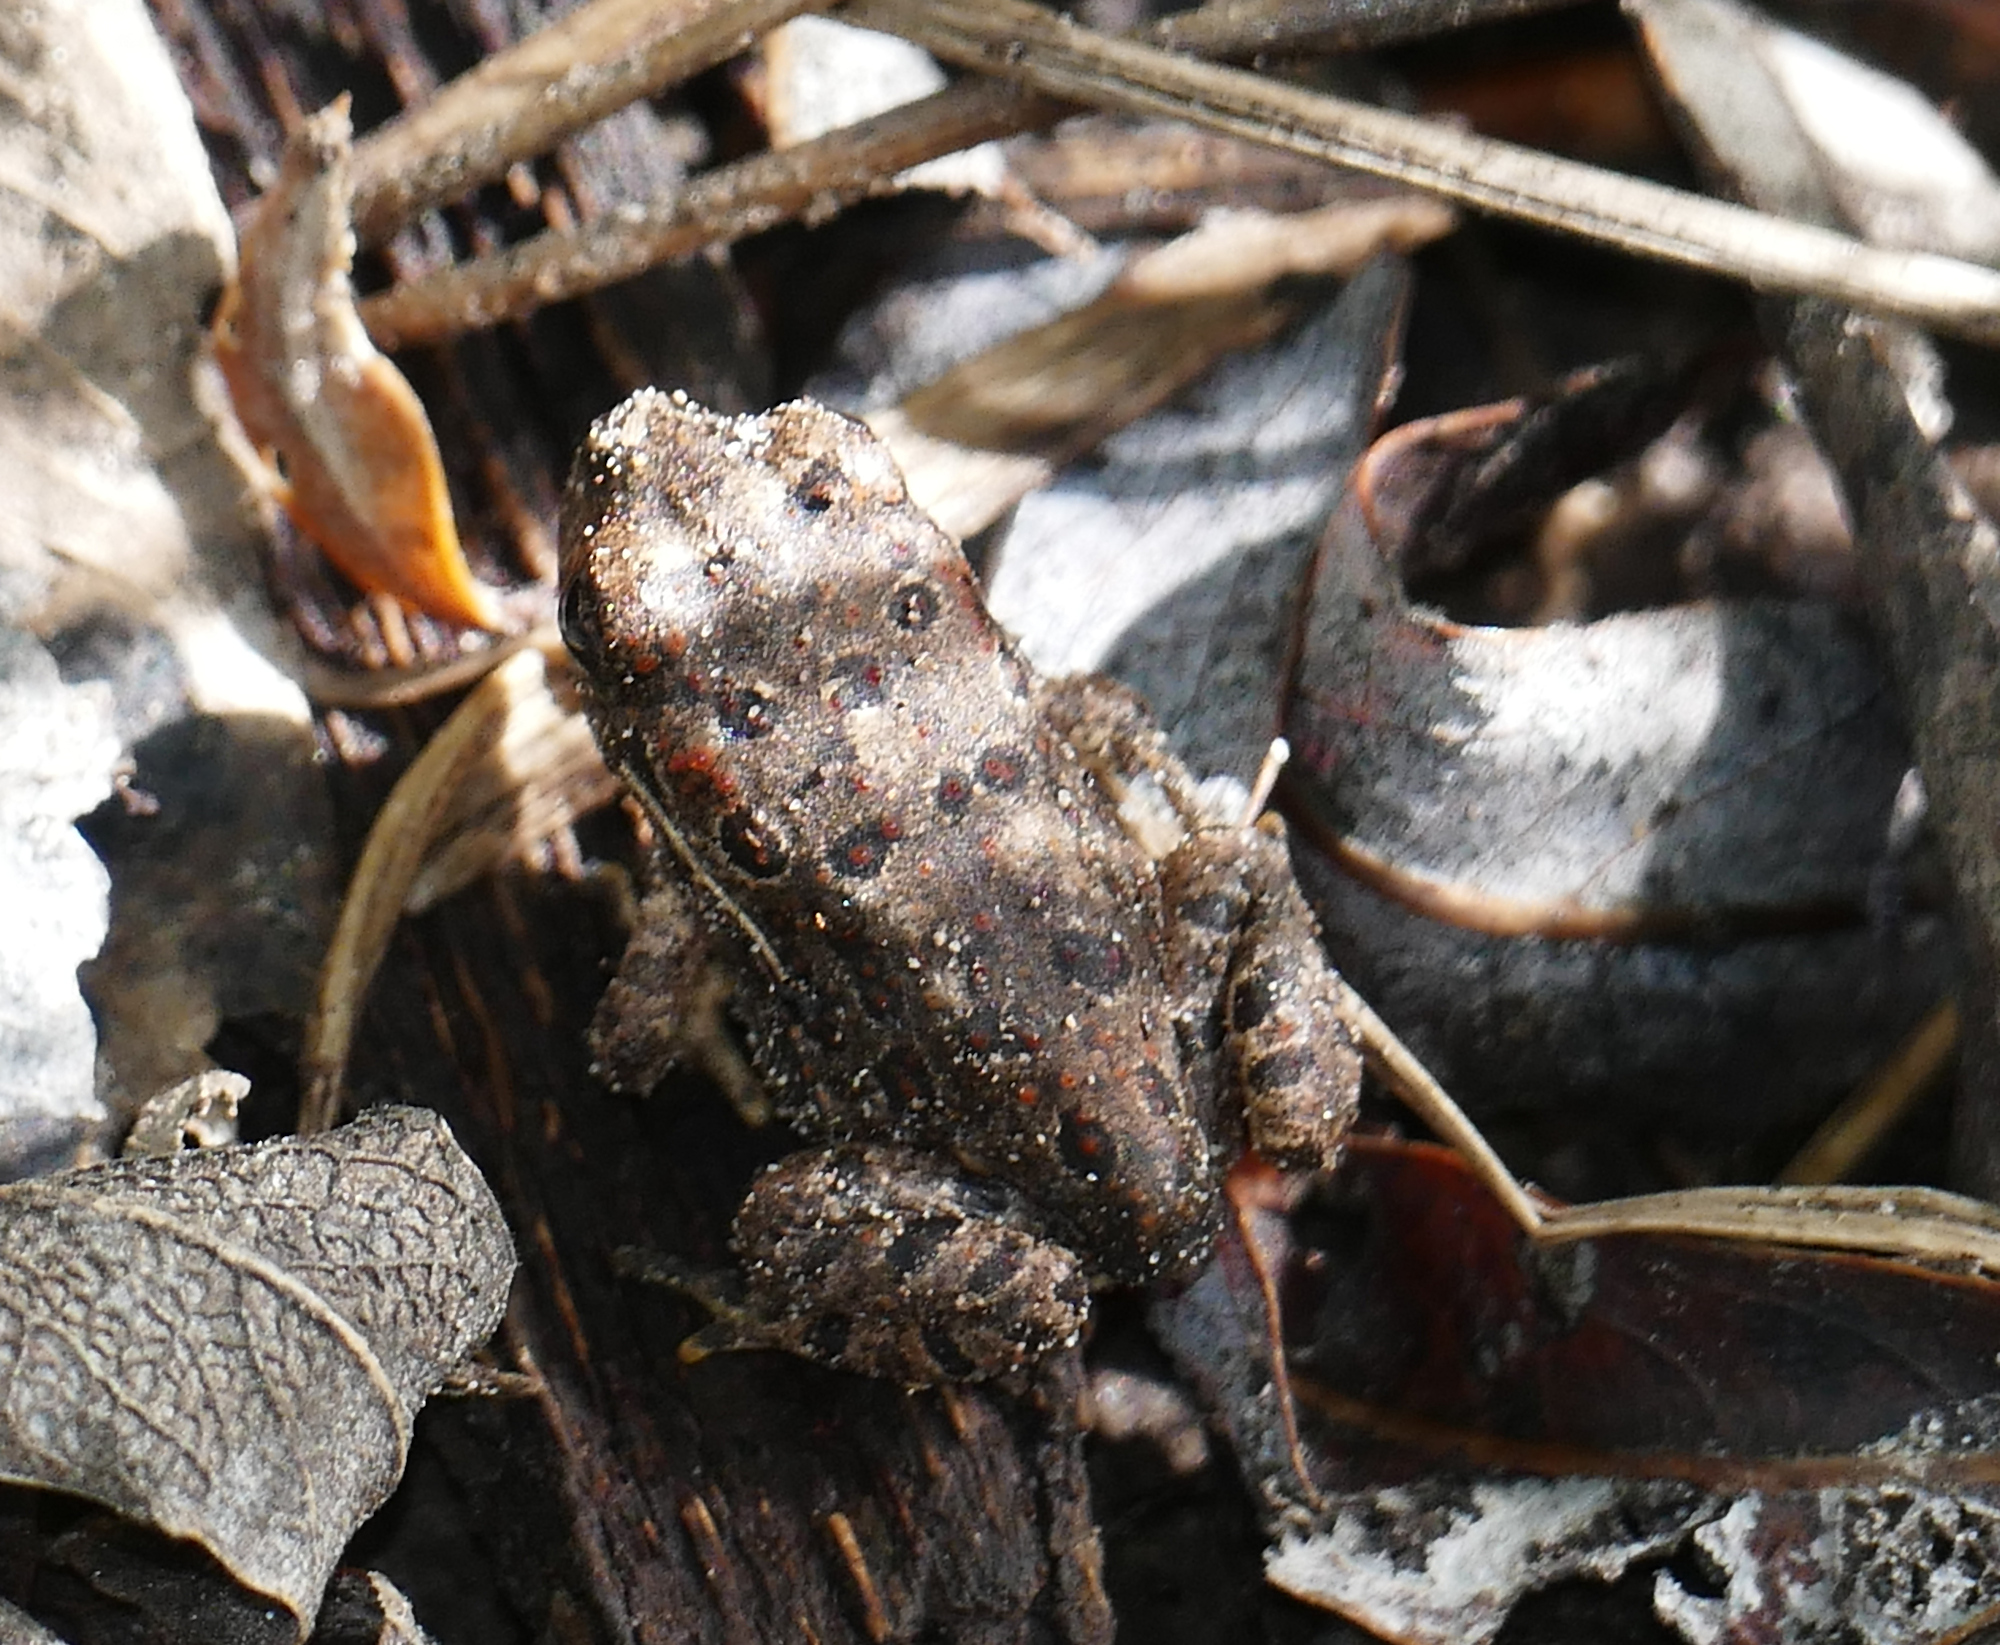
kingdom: Animalia
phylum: Chordata
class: Amphibia
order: Anura
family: Bufonidae
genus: Anaxyrus
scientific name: Anaxyrus microscaphus
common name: Arizona toad
